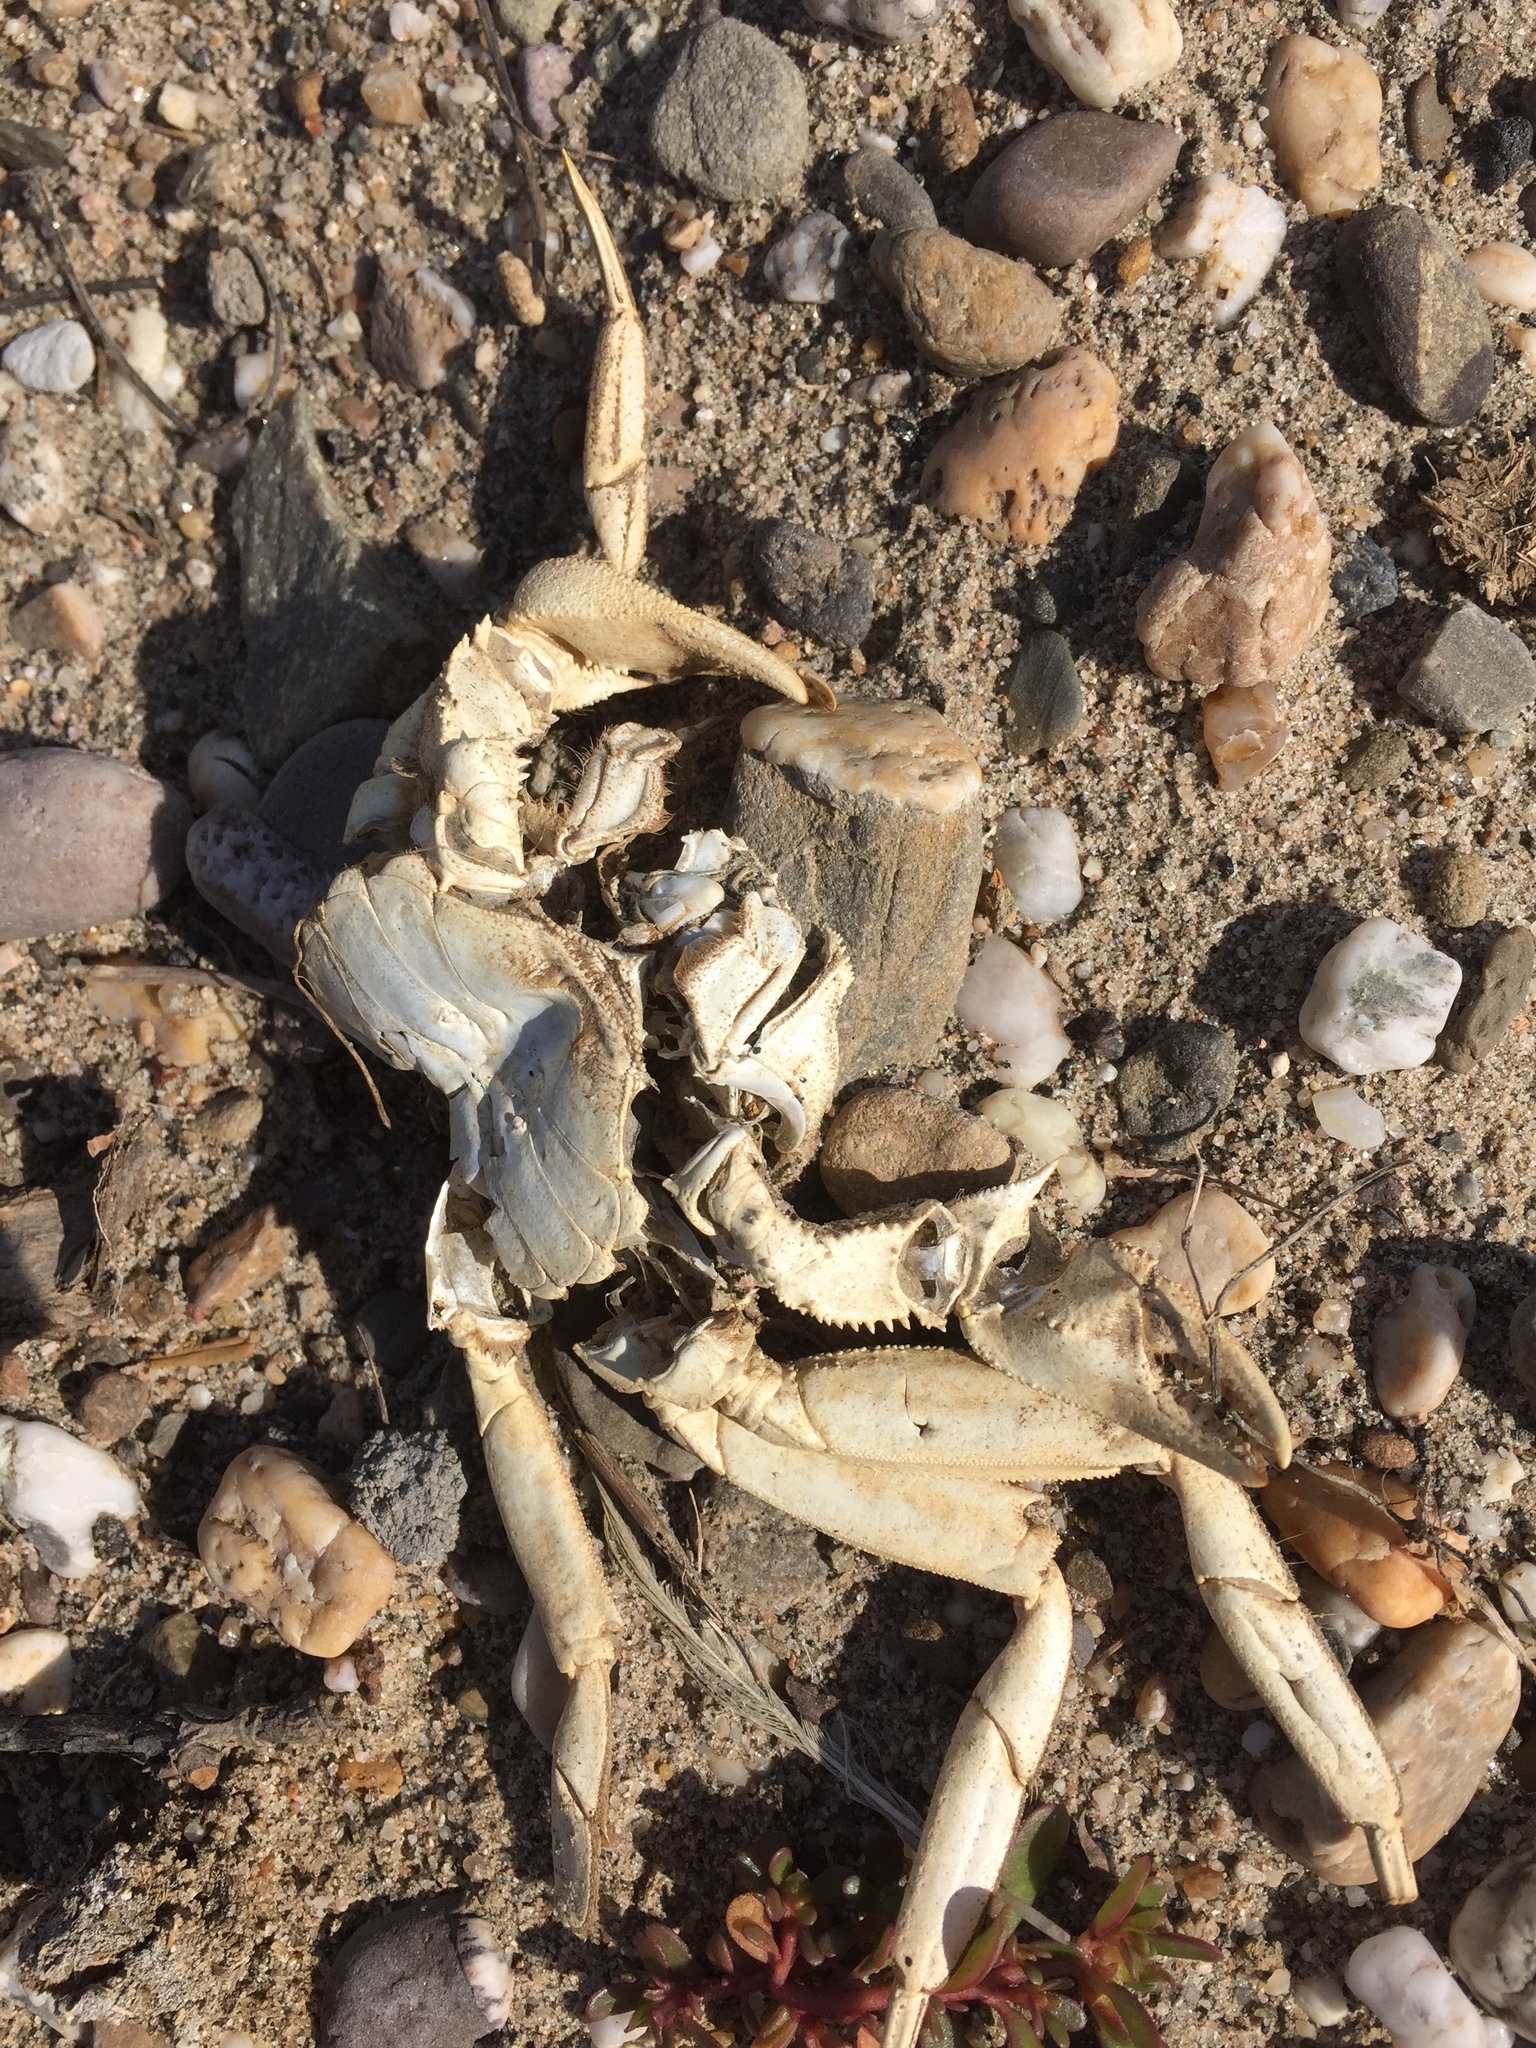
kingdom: Animalia
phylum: Arthropoda
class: Malacostraca
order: Decapoda
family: Varunidae
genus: Eriocheir
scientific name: Eriocheir sinensis
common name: Chinese mitten crab
